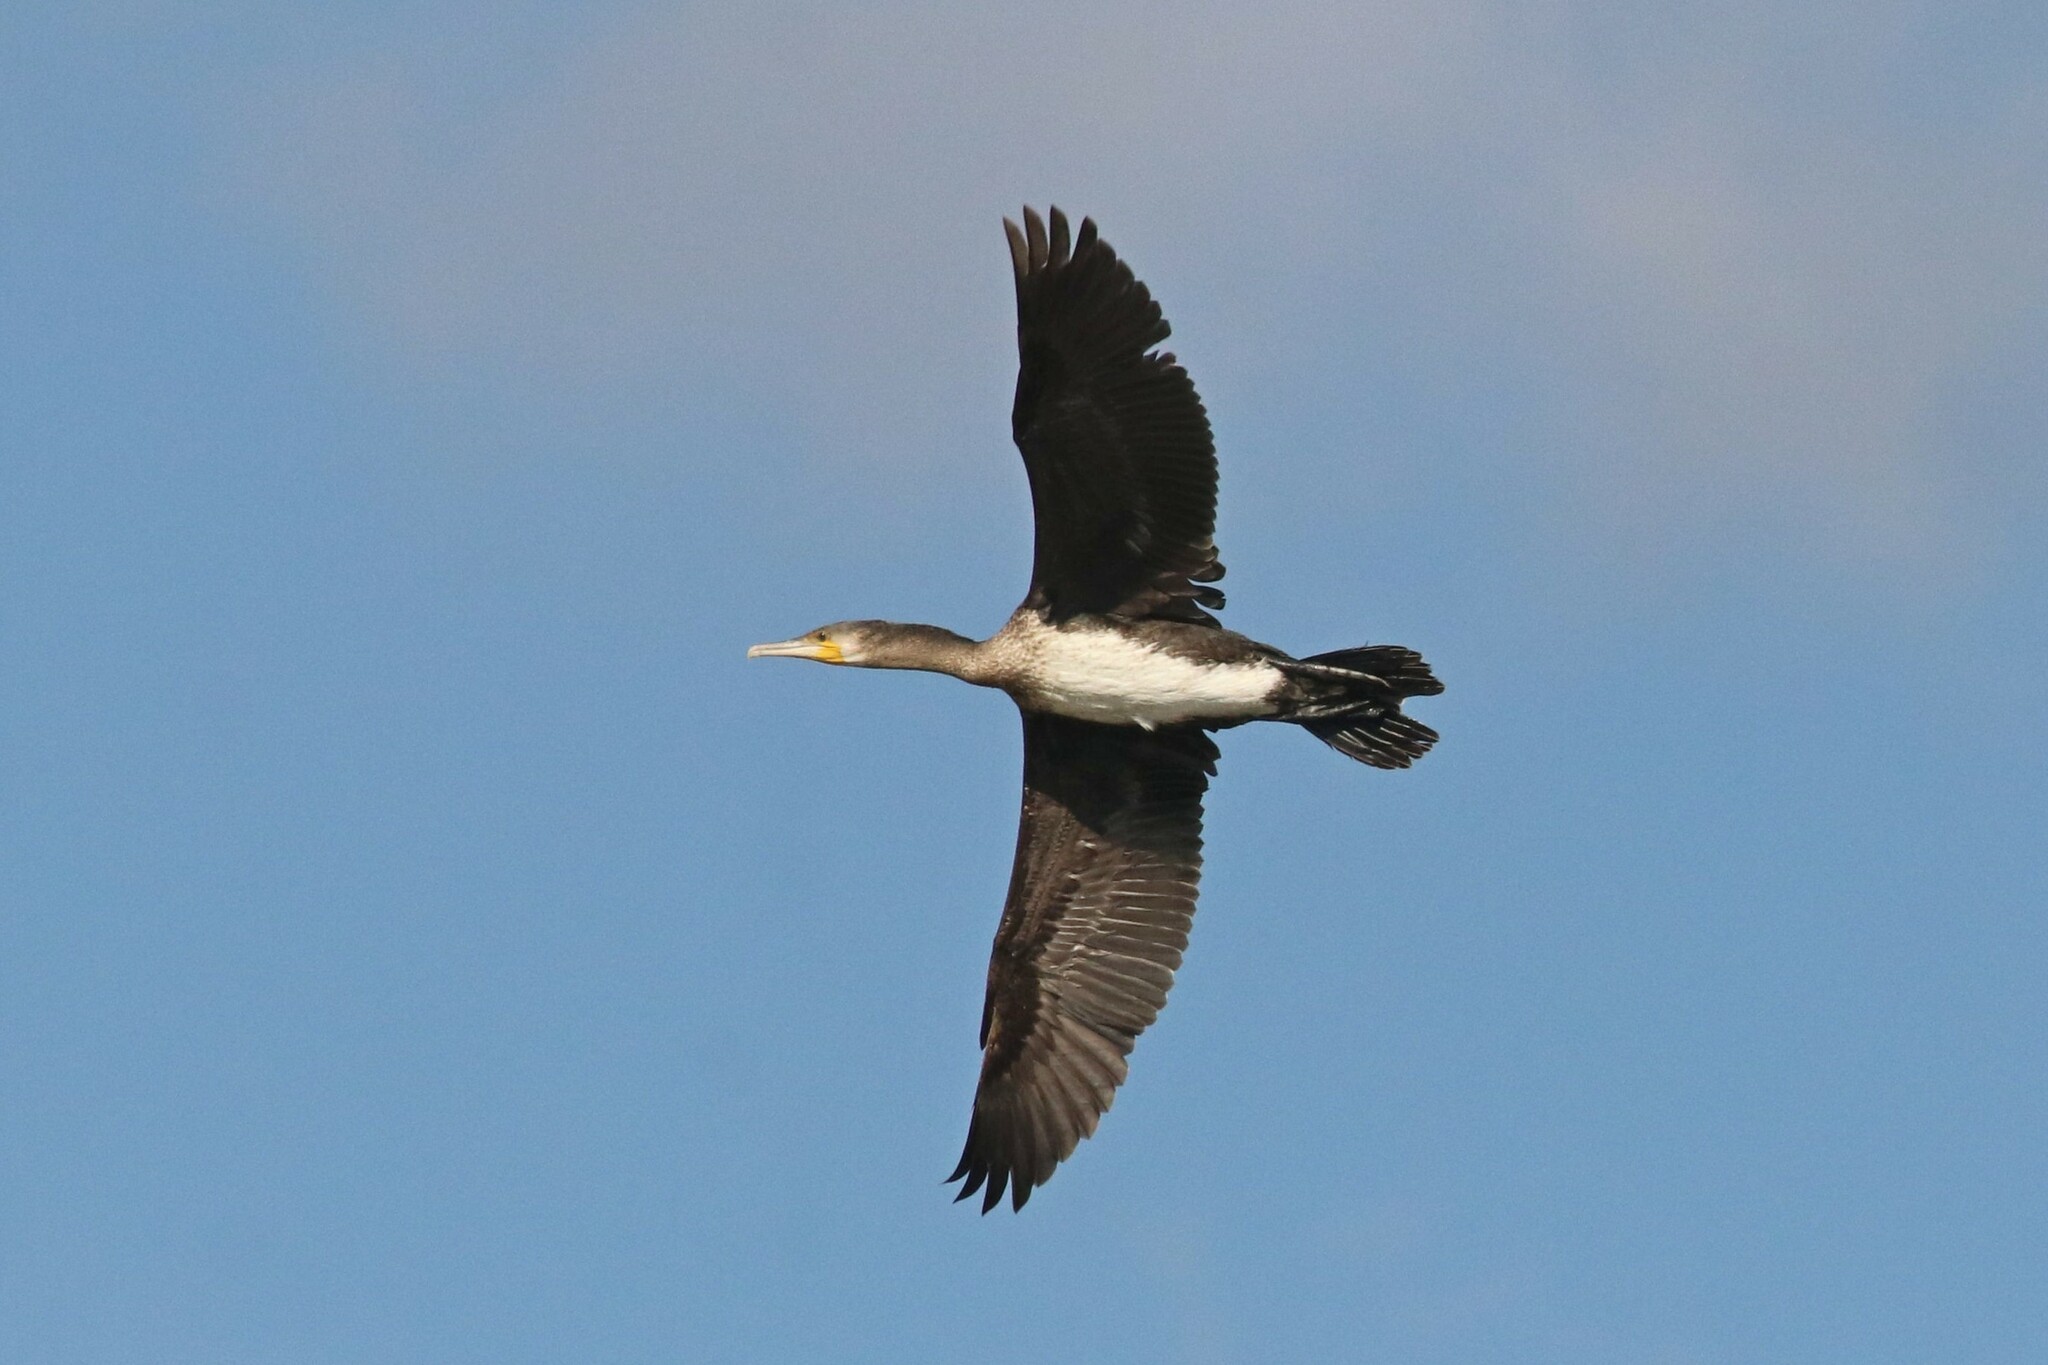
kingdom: Animalia
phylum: Chordata
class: Aves
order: Suliformes
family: Phalacrocoracidae
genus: Phalacrocorax
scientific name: Phalacrocorax carbo
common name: Great cormorant
